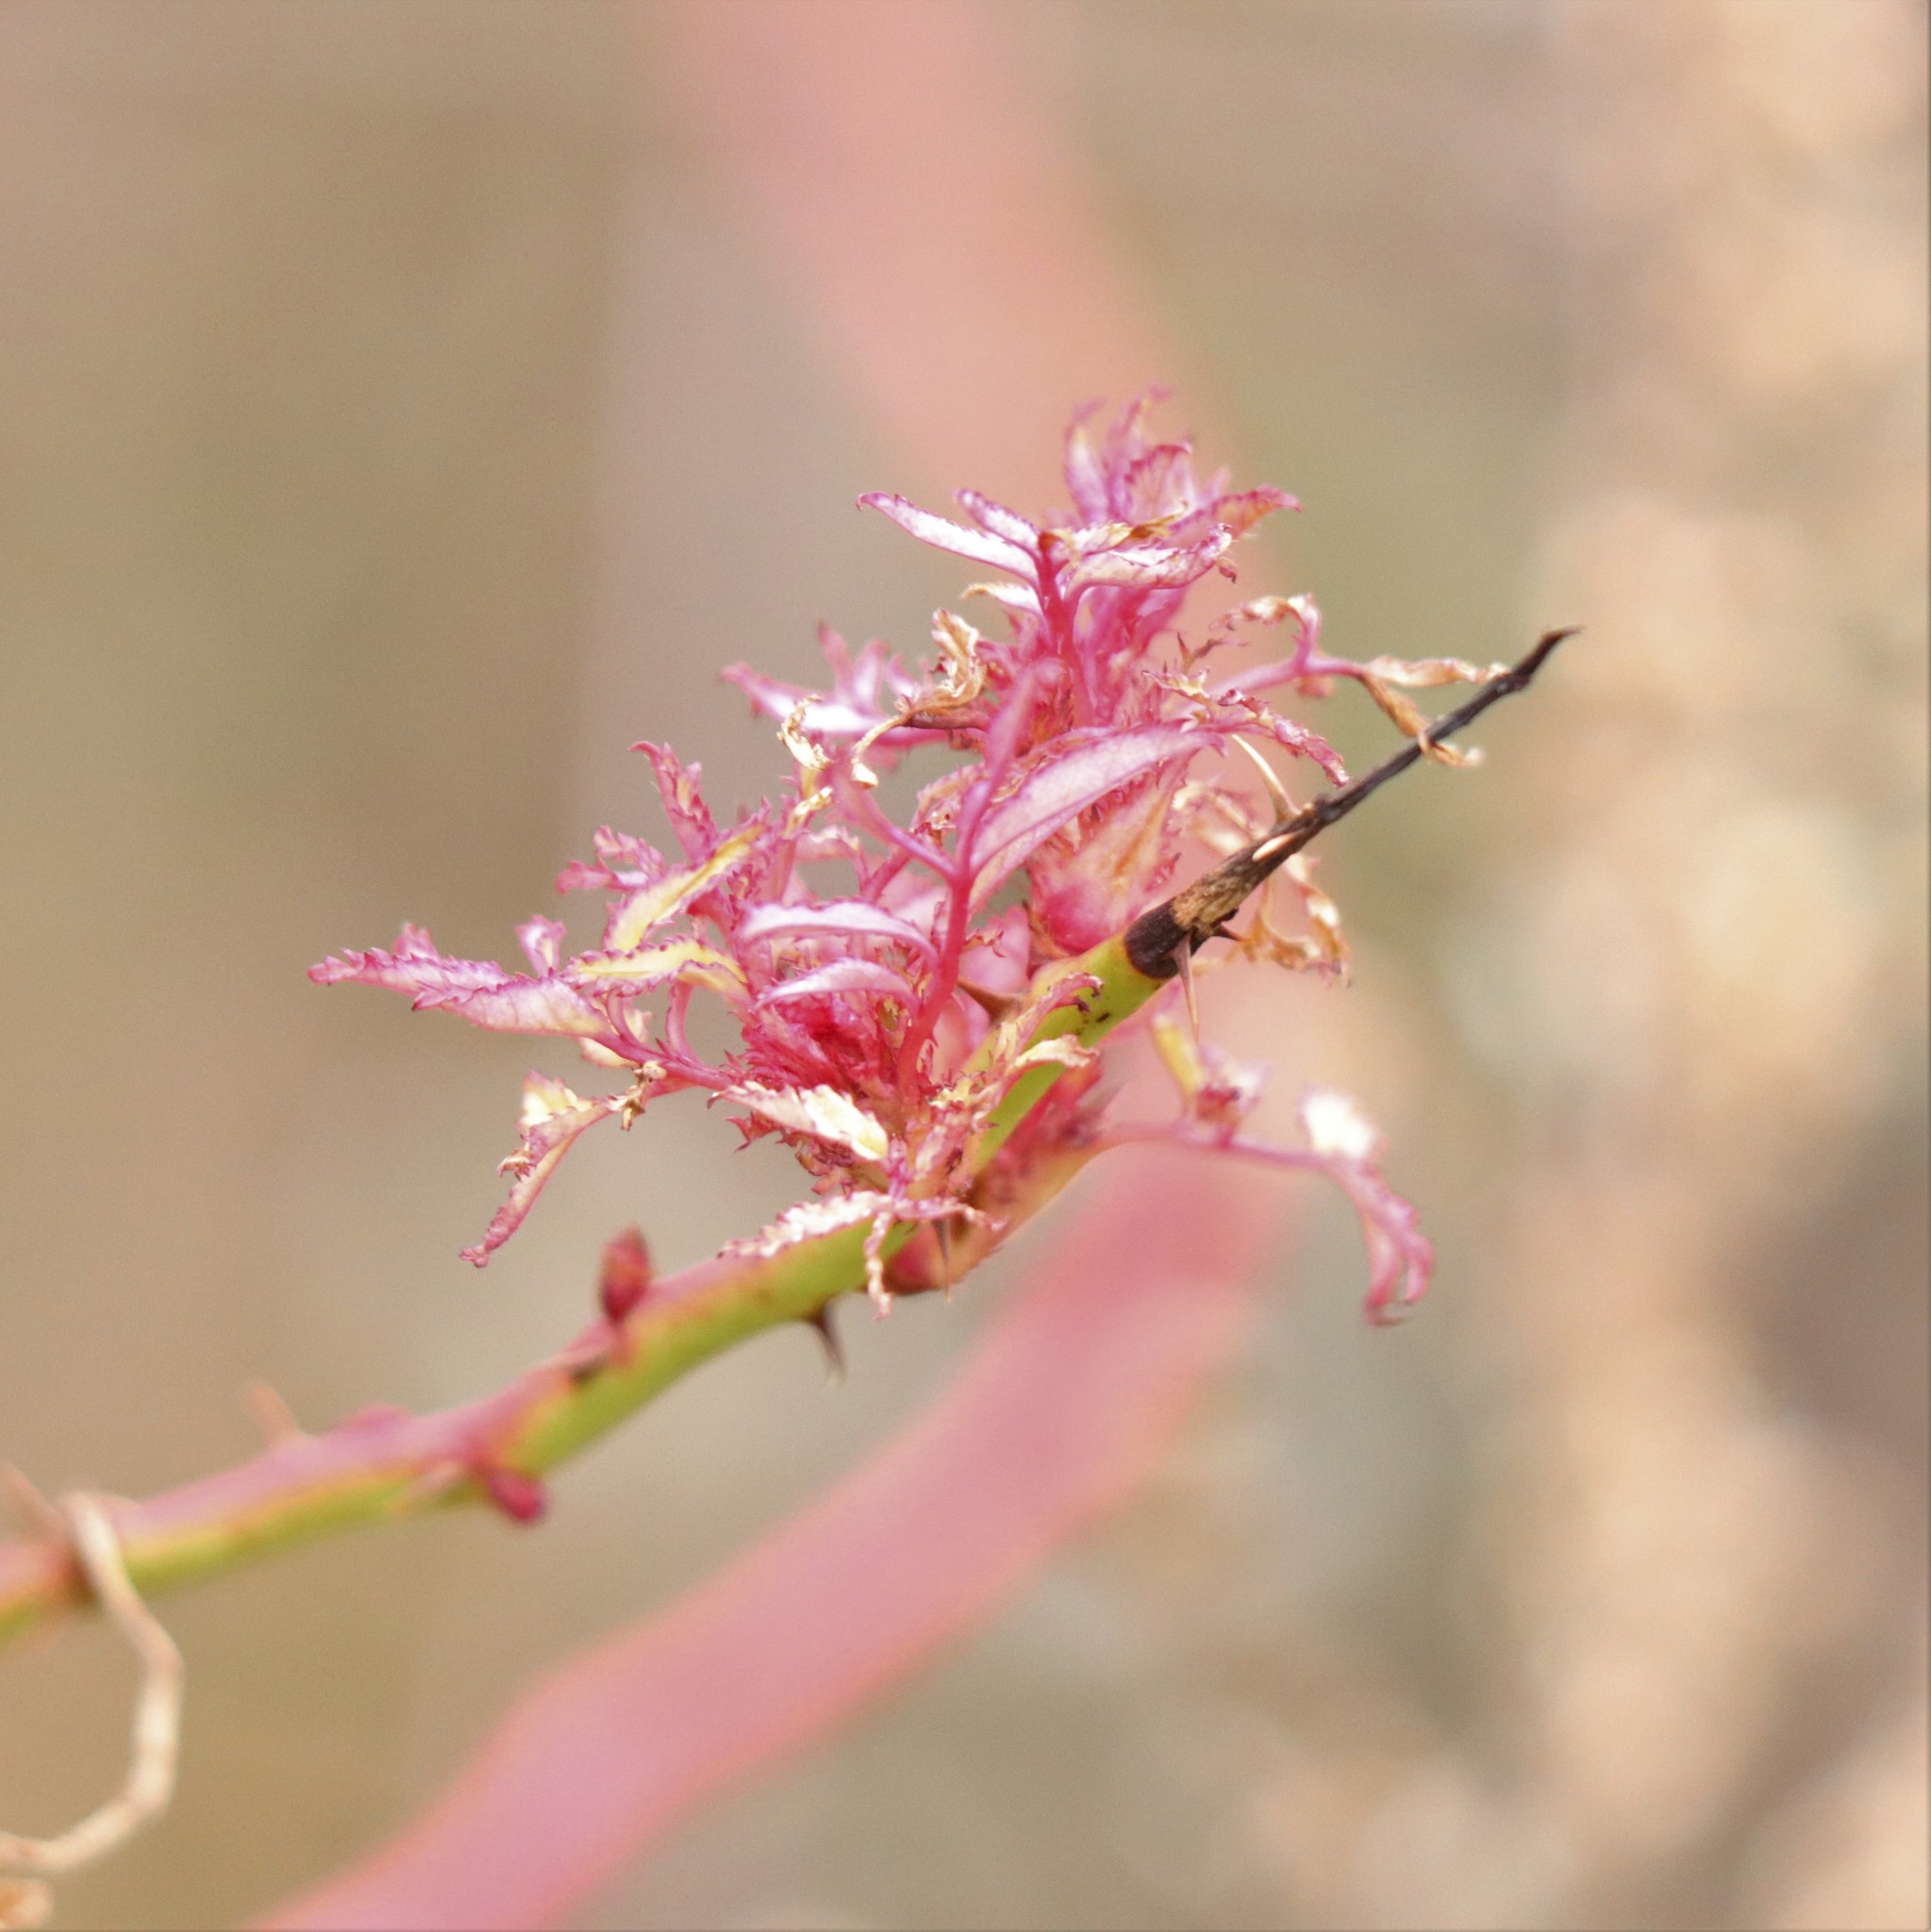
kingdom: Viruses
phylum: Negarnaviricota
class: Ellioviricetes
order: Bunyavirales
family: Fimoviridae
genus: Emaravirus
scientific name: Emaravirus rosae
